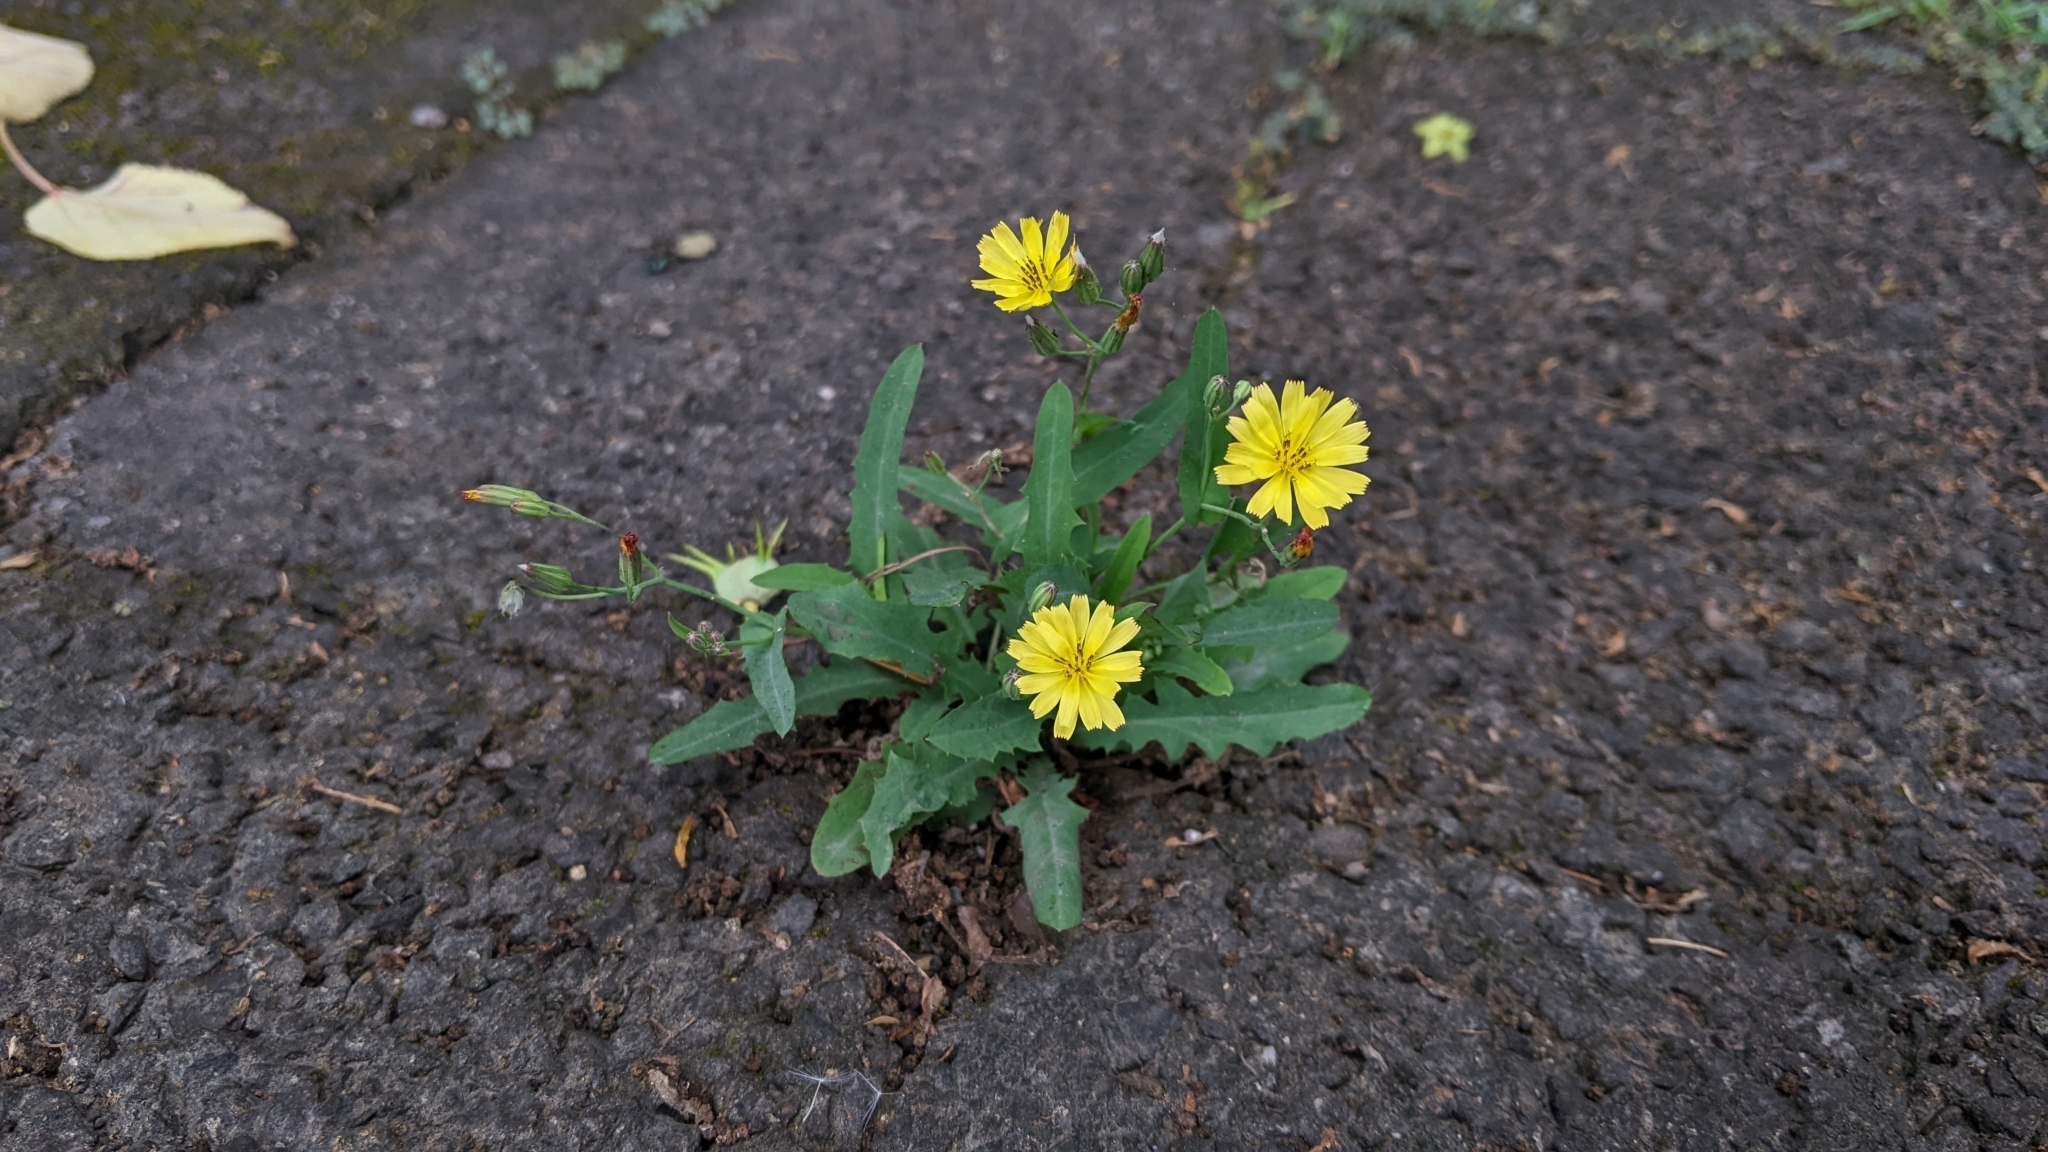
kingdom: Plantae
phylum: Tracheophyta
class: Magnoliopsida
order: Asterales
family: Asteraceae
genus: Ixeris
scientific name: Ixeris chinensis
